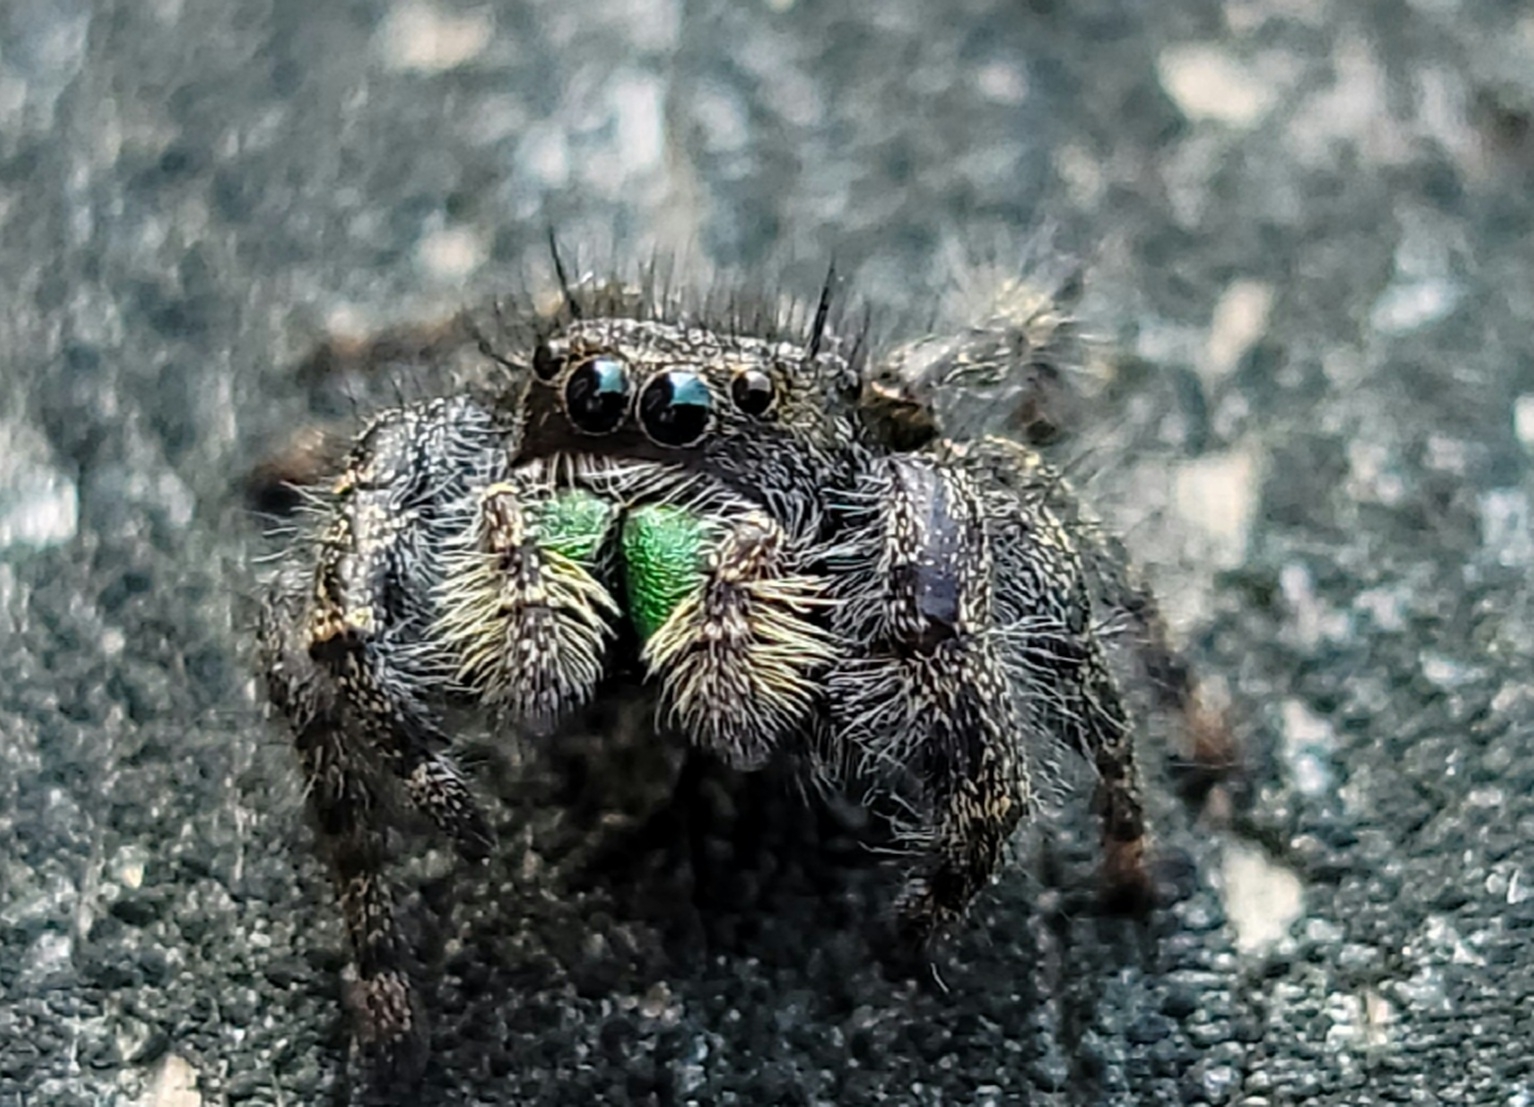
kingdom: Animalia
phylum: Arthropoda
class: Arachnida
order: Araneae
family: Salticidae
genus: Phidippus
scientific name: Phidippus audax
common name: Bold jumper
